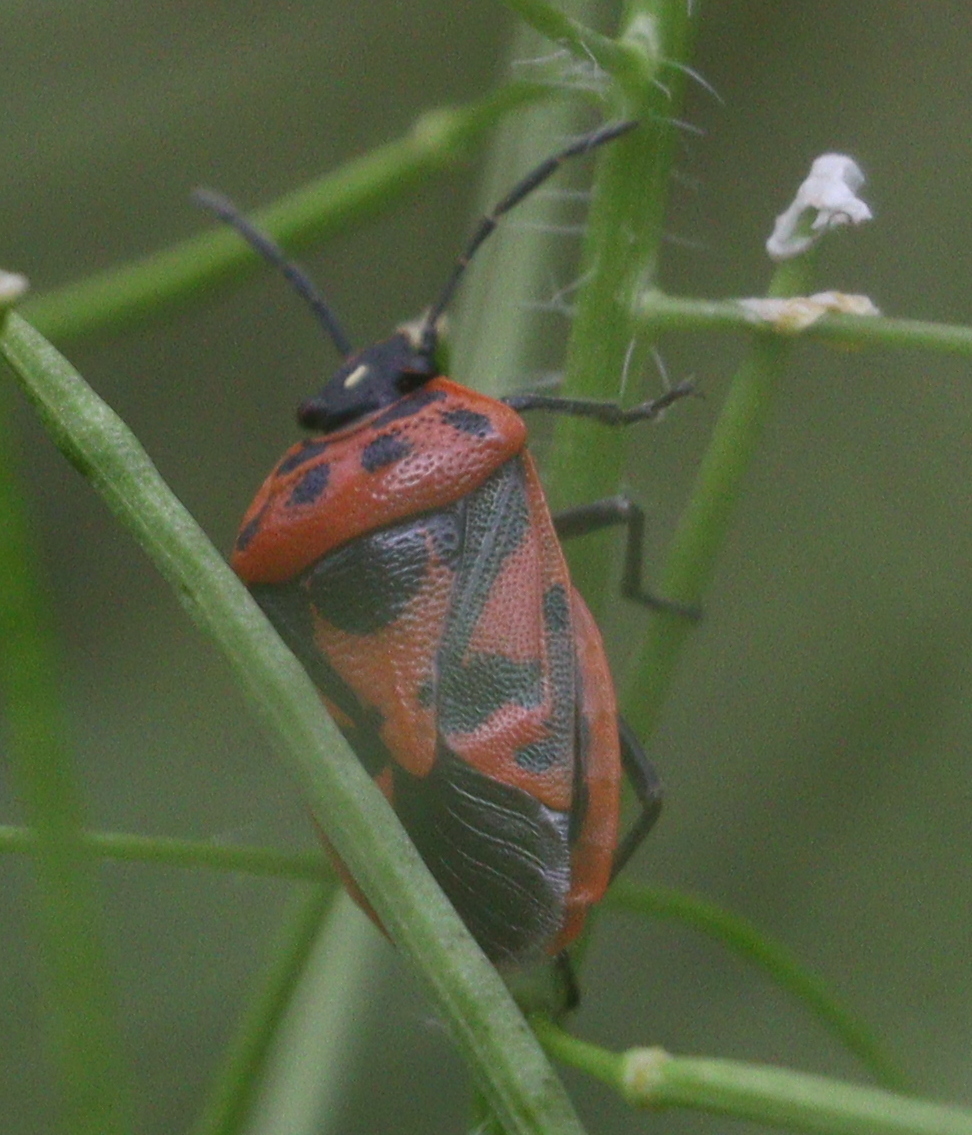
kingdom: Animalia
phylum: Arthropoda
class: Insecta
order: Hemiptera
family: Pentatomidae
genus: Eurydema
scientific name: Eurydema ornata
